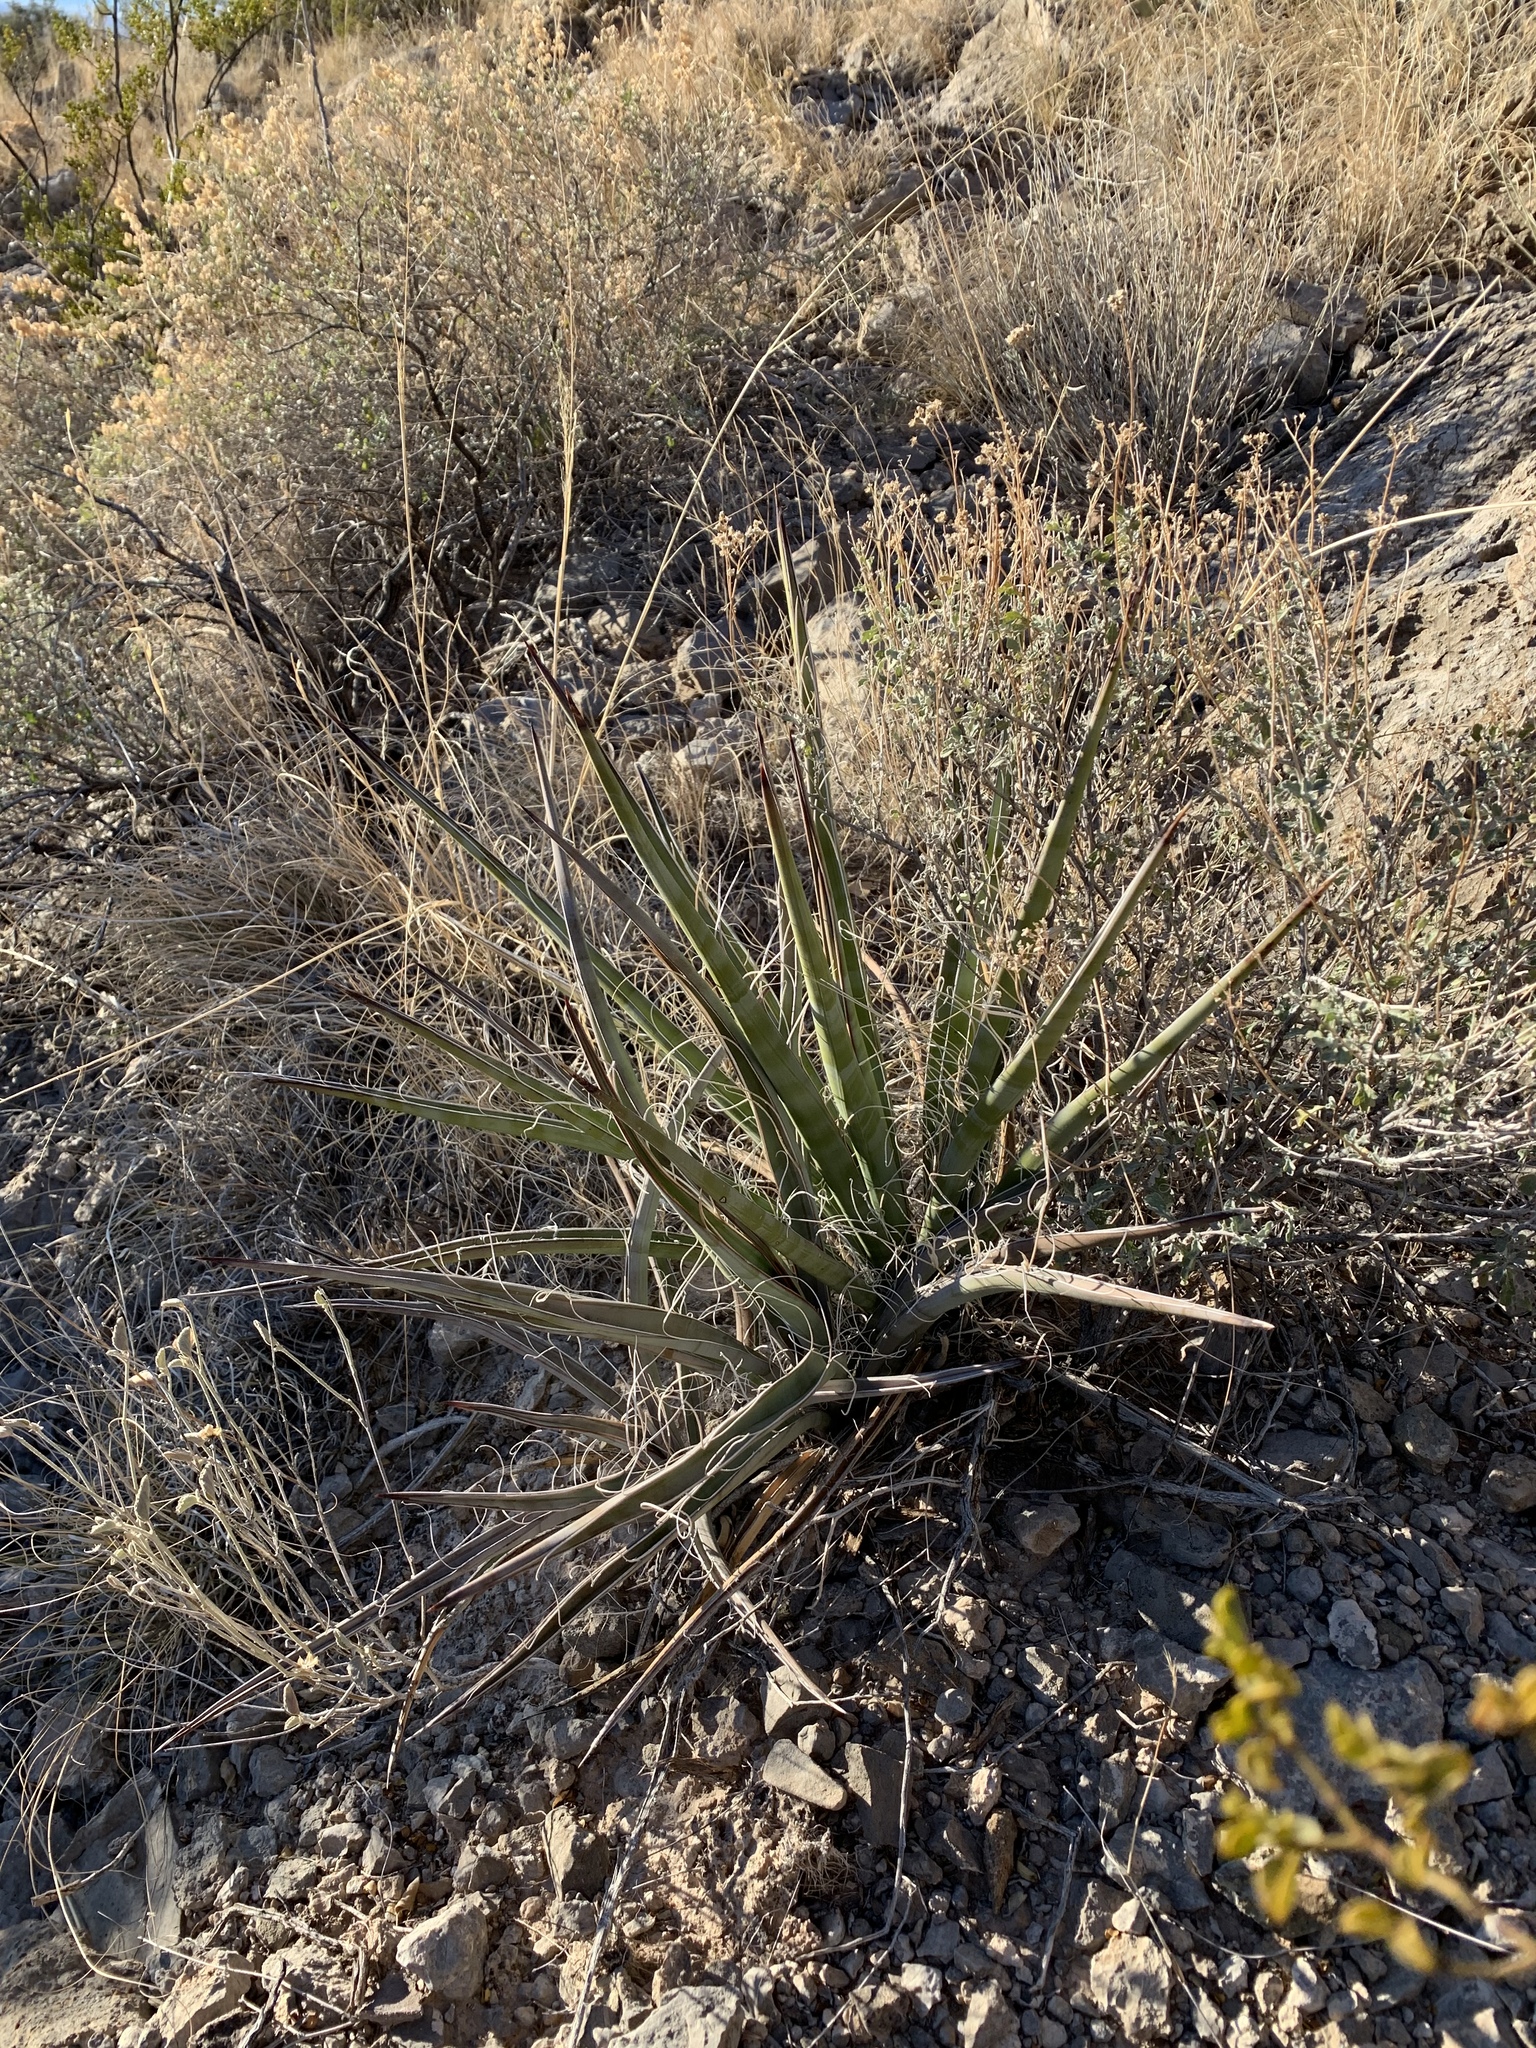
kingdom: Plantae
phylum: Tracheophyta
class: Liliopsida
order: Asparagales
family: Asparagaceae
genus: Yucca
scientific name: Yucca baccata
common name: Banana yucca
